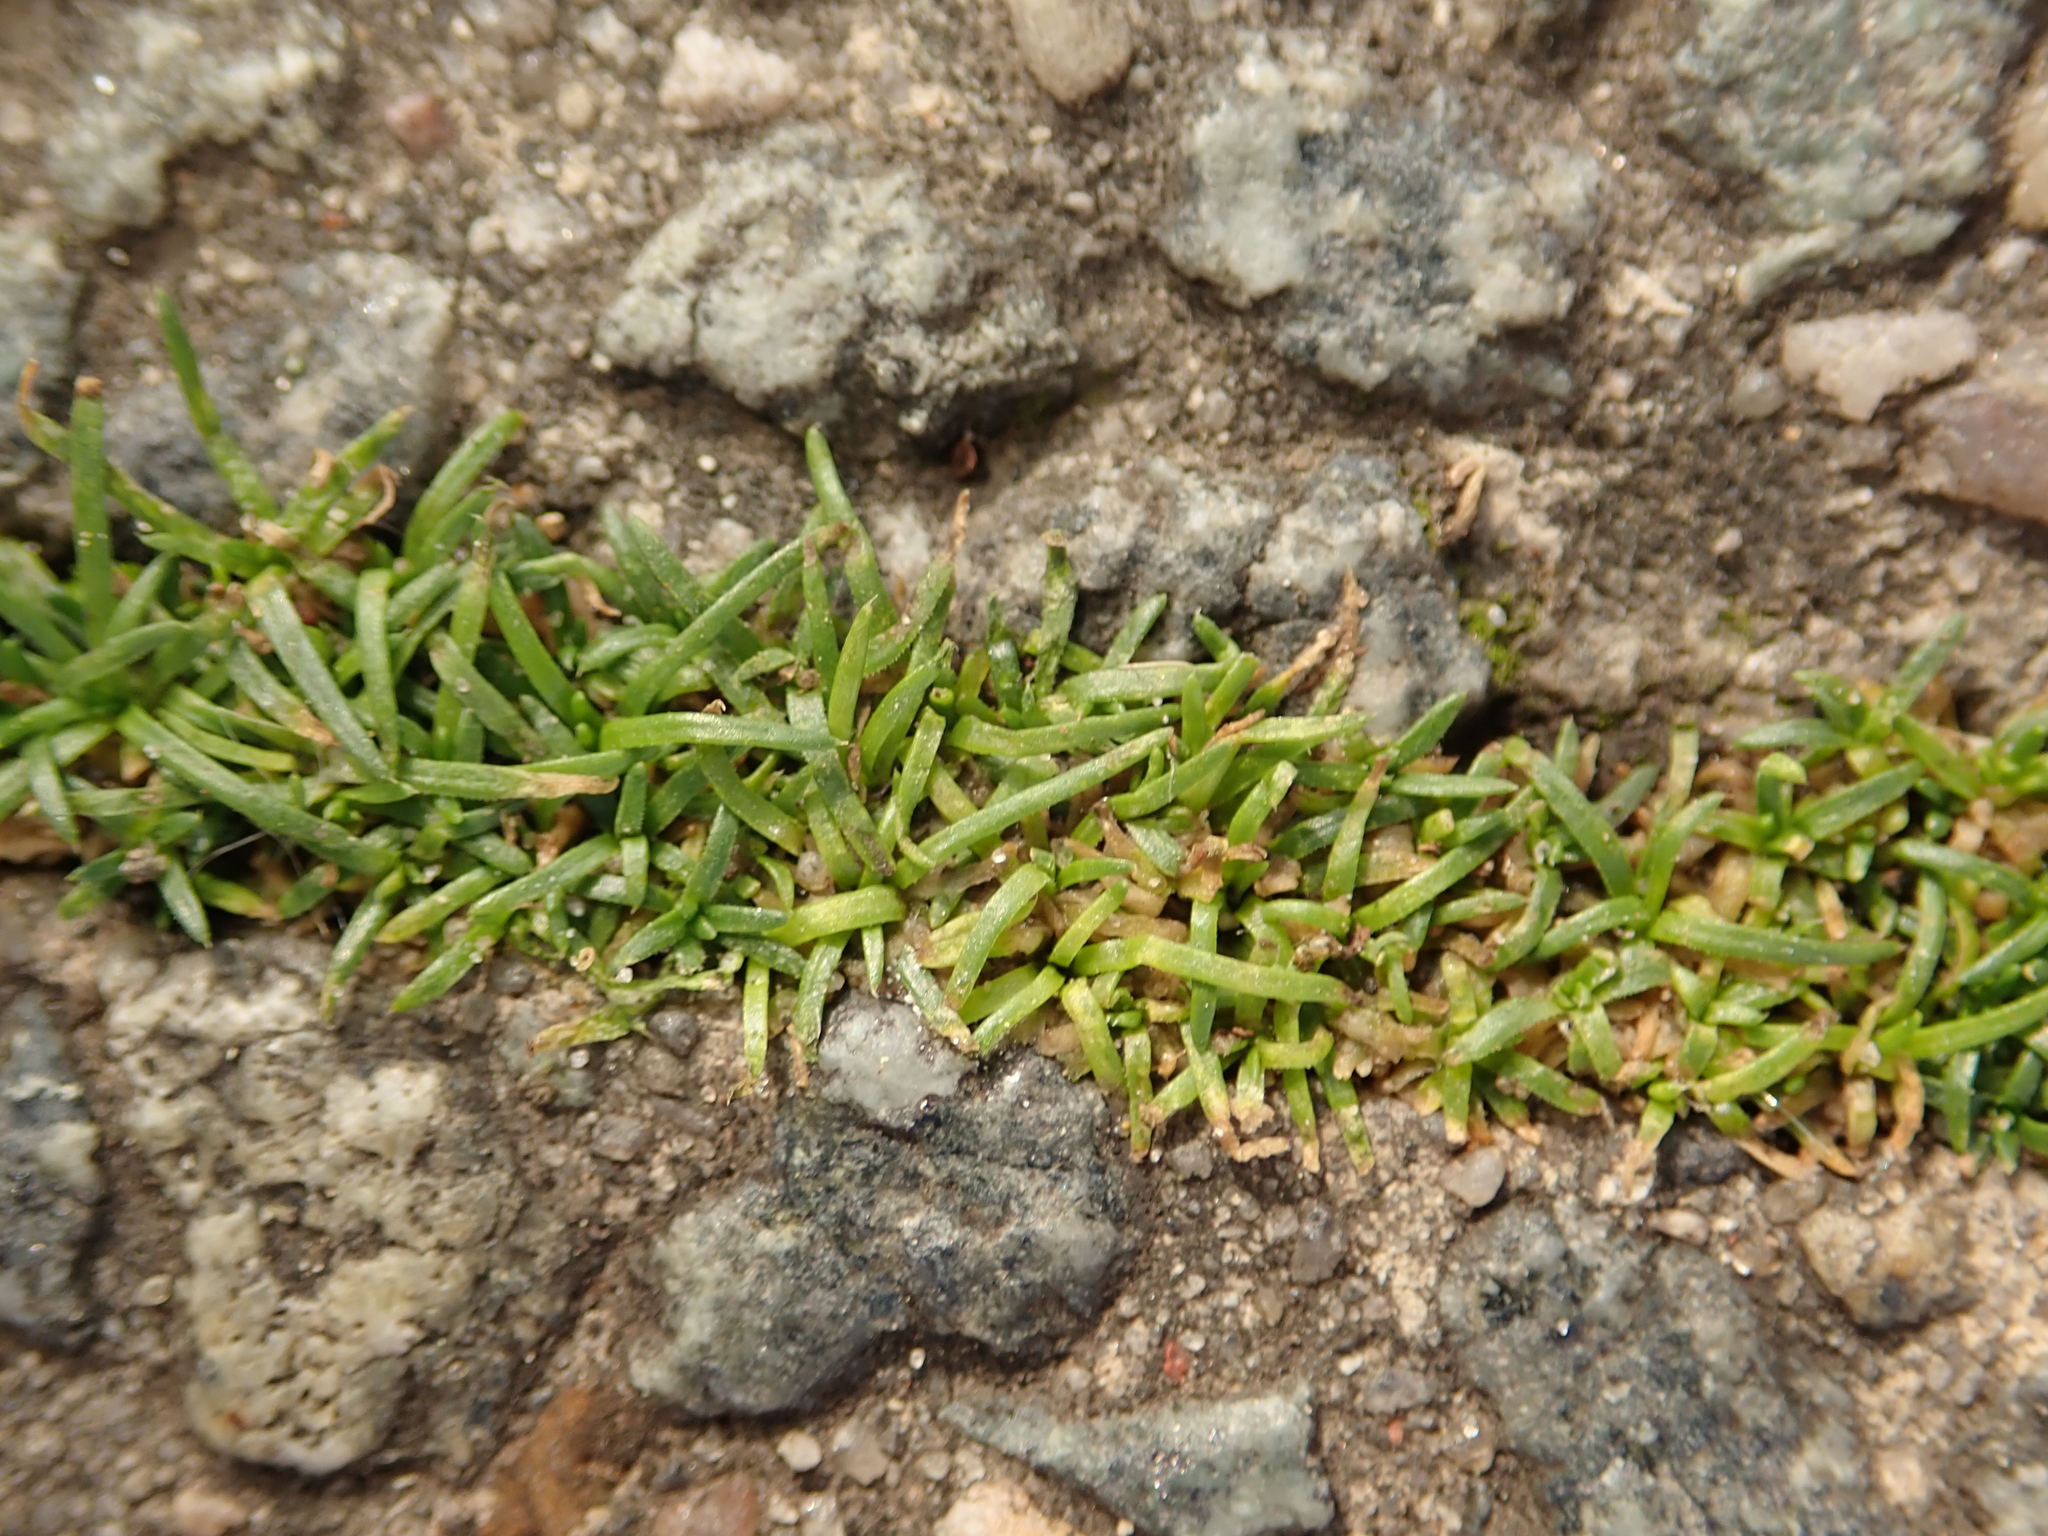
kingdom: Plantae
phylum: Tracheophyta
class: Magnoliopsida
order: Caryophyllales
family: Caryophyllaceae
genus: Sagina
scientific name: Sagina procumbens
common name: Procumbent pearlwort
